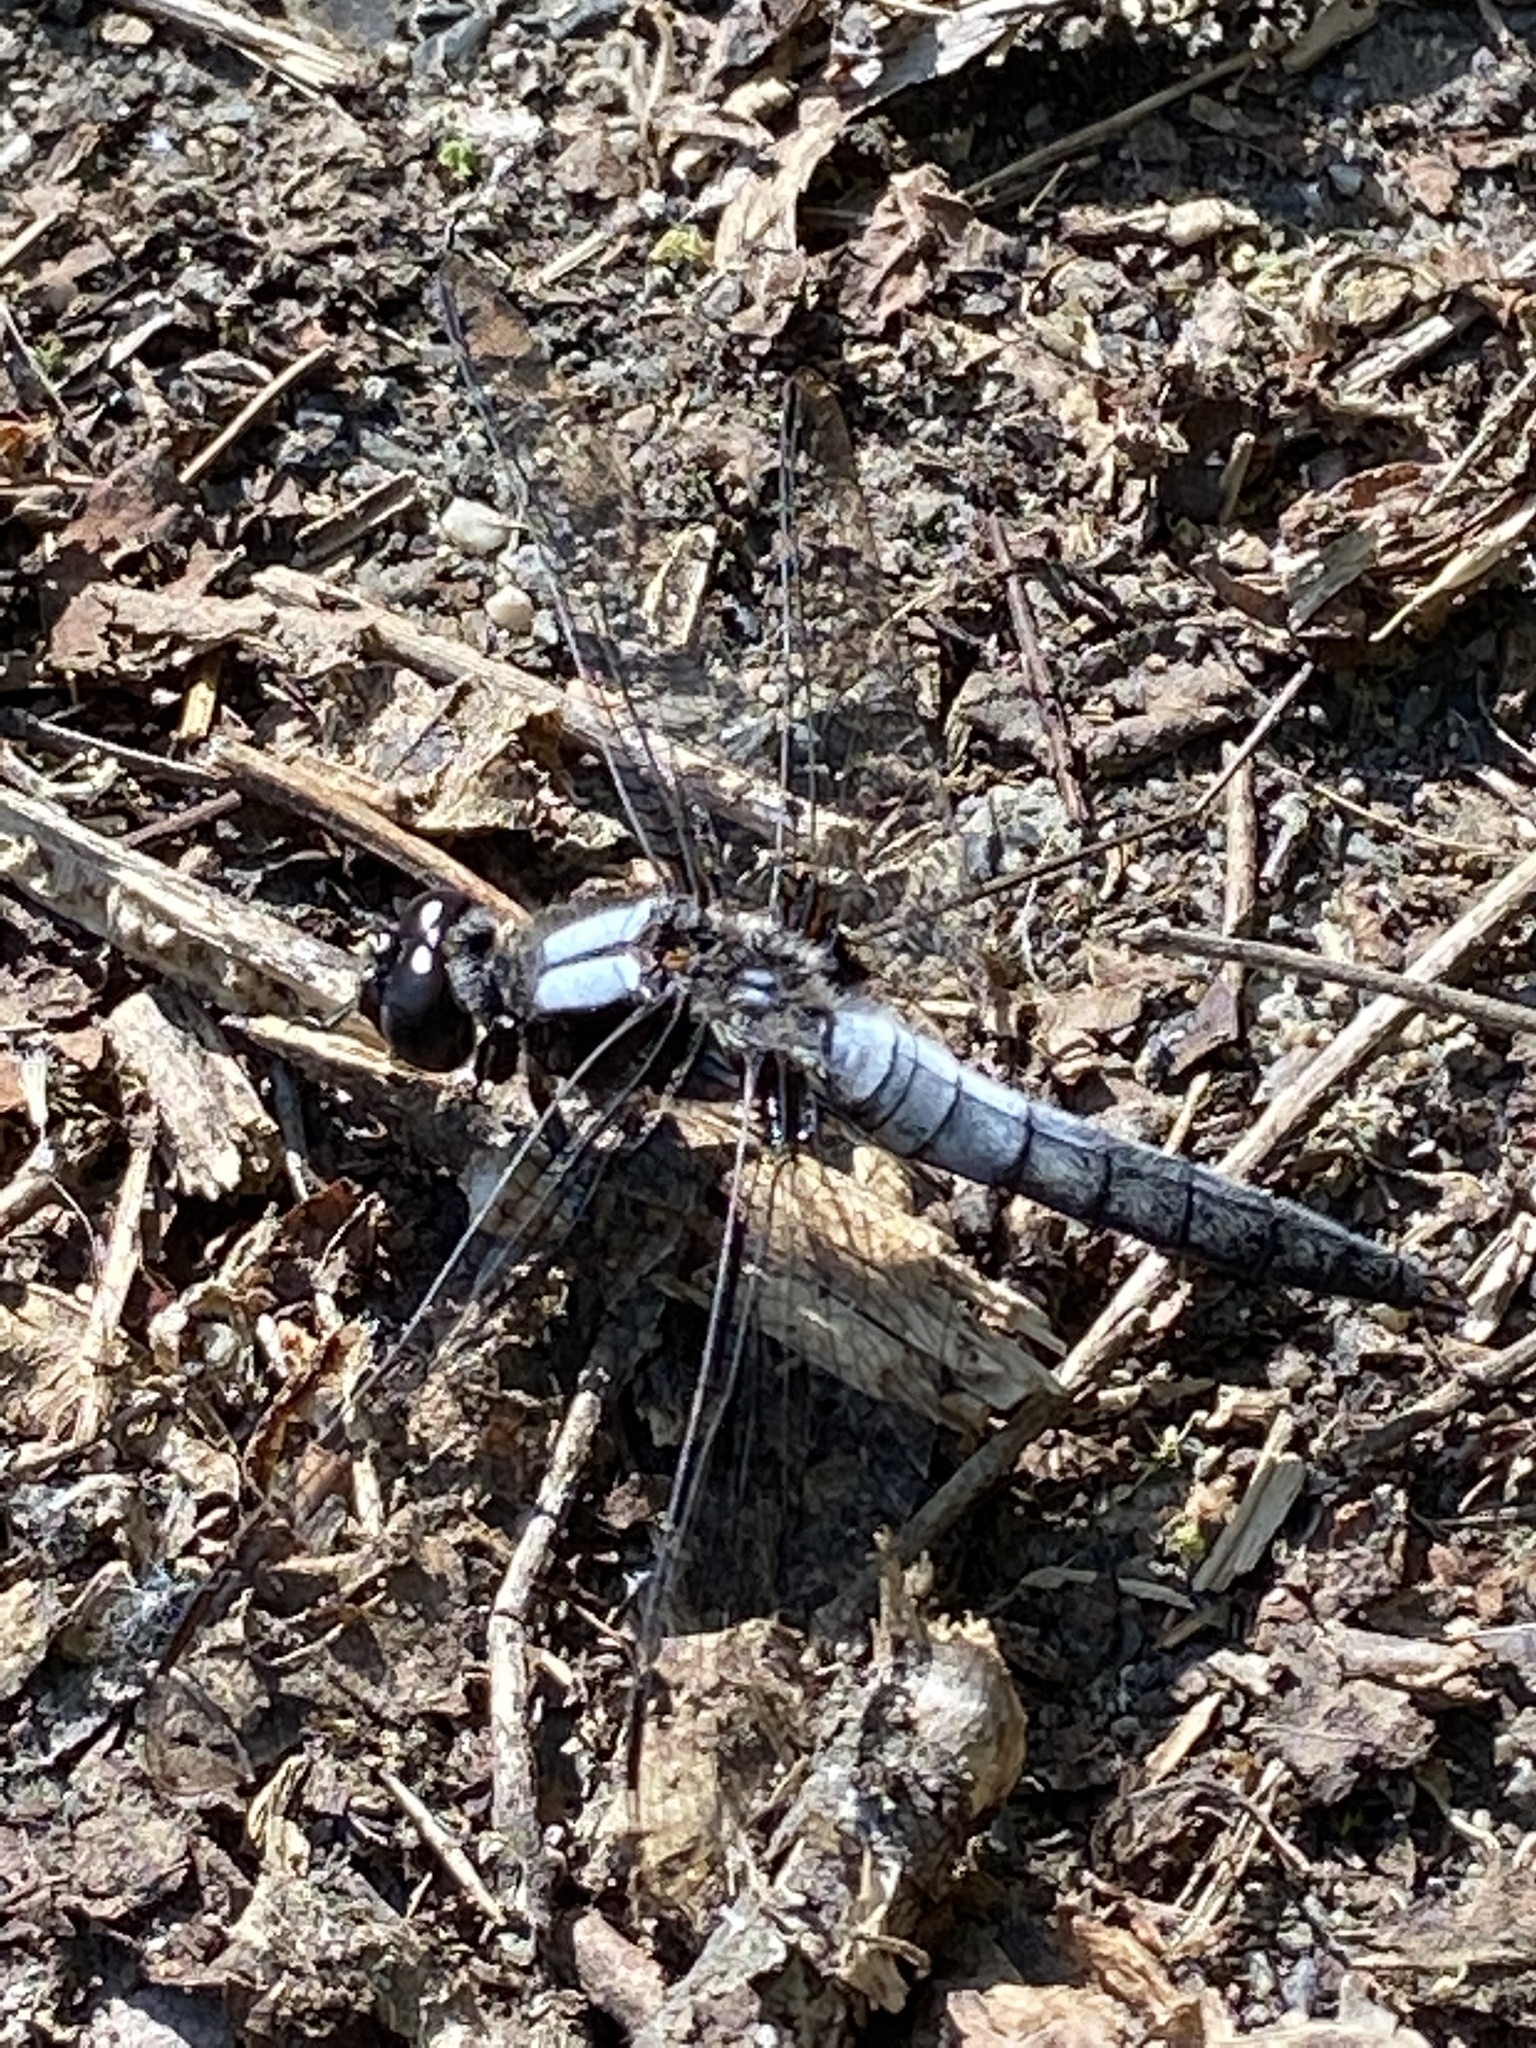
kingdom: Animalia
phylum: Arthropoda
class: Insecta
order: Odonata
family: Libellulidae
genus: Ladona
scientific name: Ladona julia
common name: Chalk-fronted corporal
